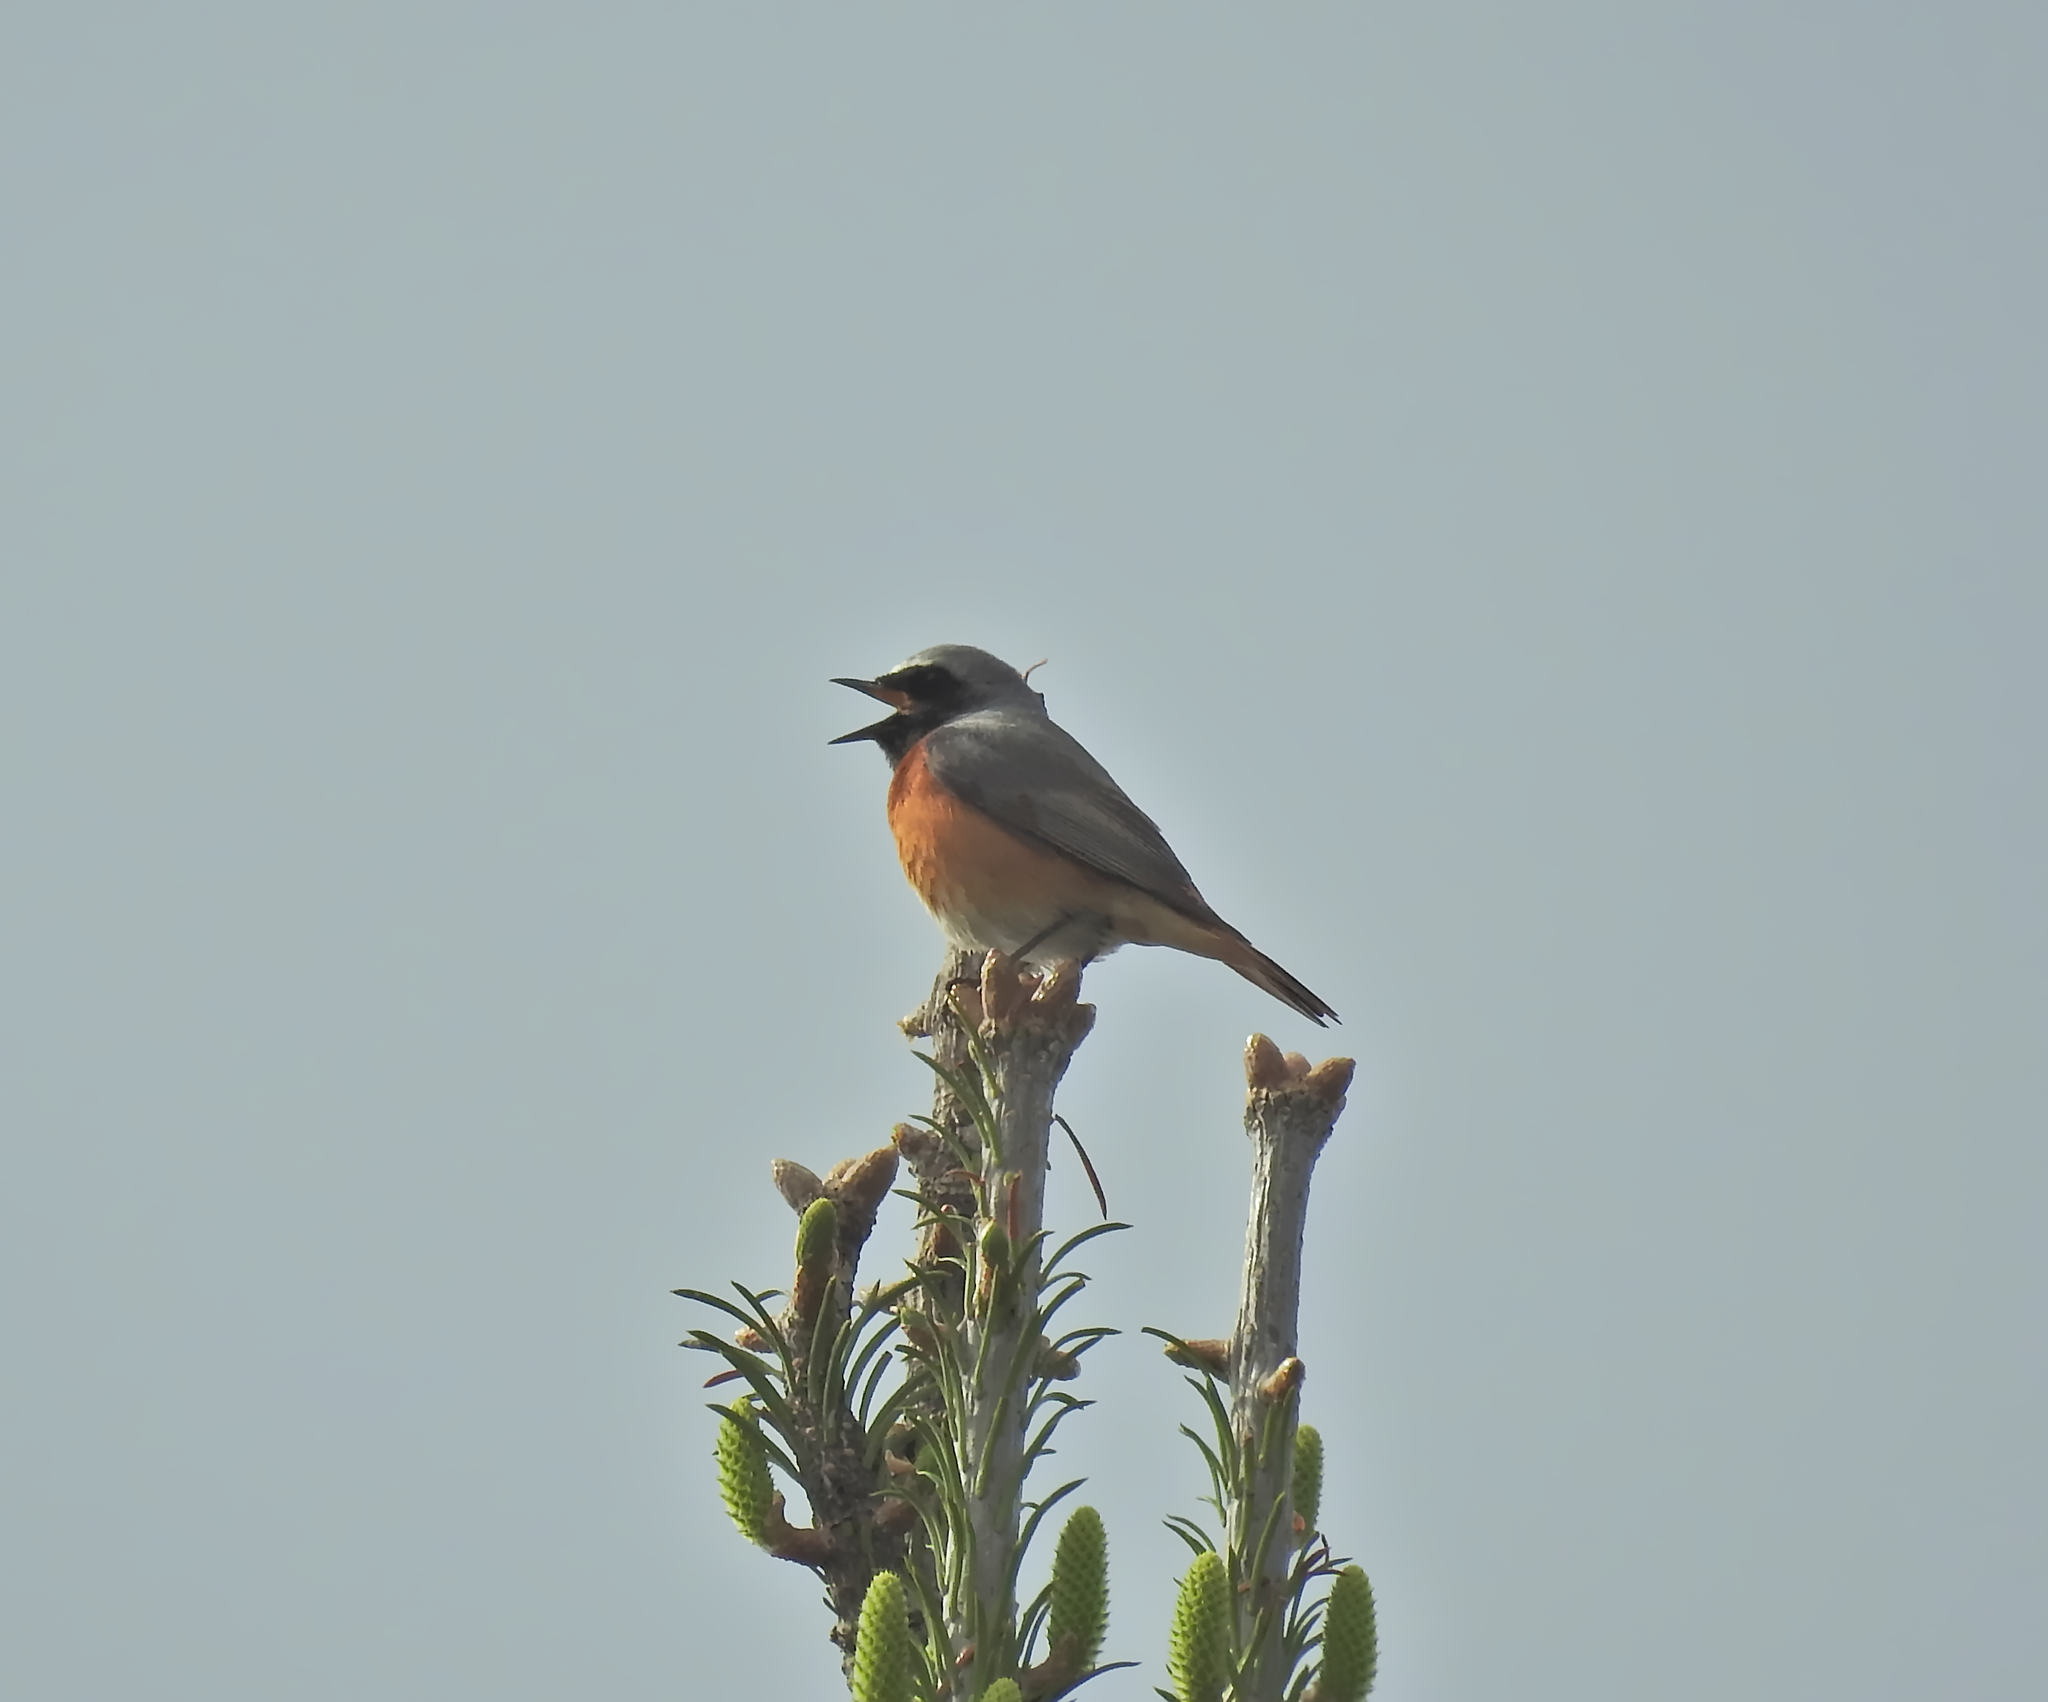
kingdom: Animalia
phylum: Chordata
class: Aves
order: Passeriformes
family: Muscicapidae
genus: Phoenicurus
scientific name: Phoenicurus phoenicurus
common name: Common redstart
